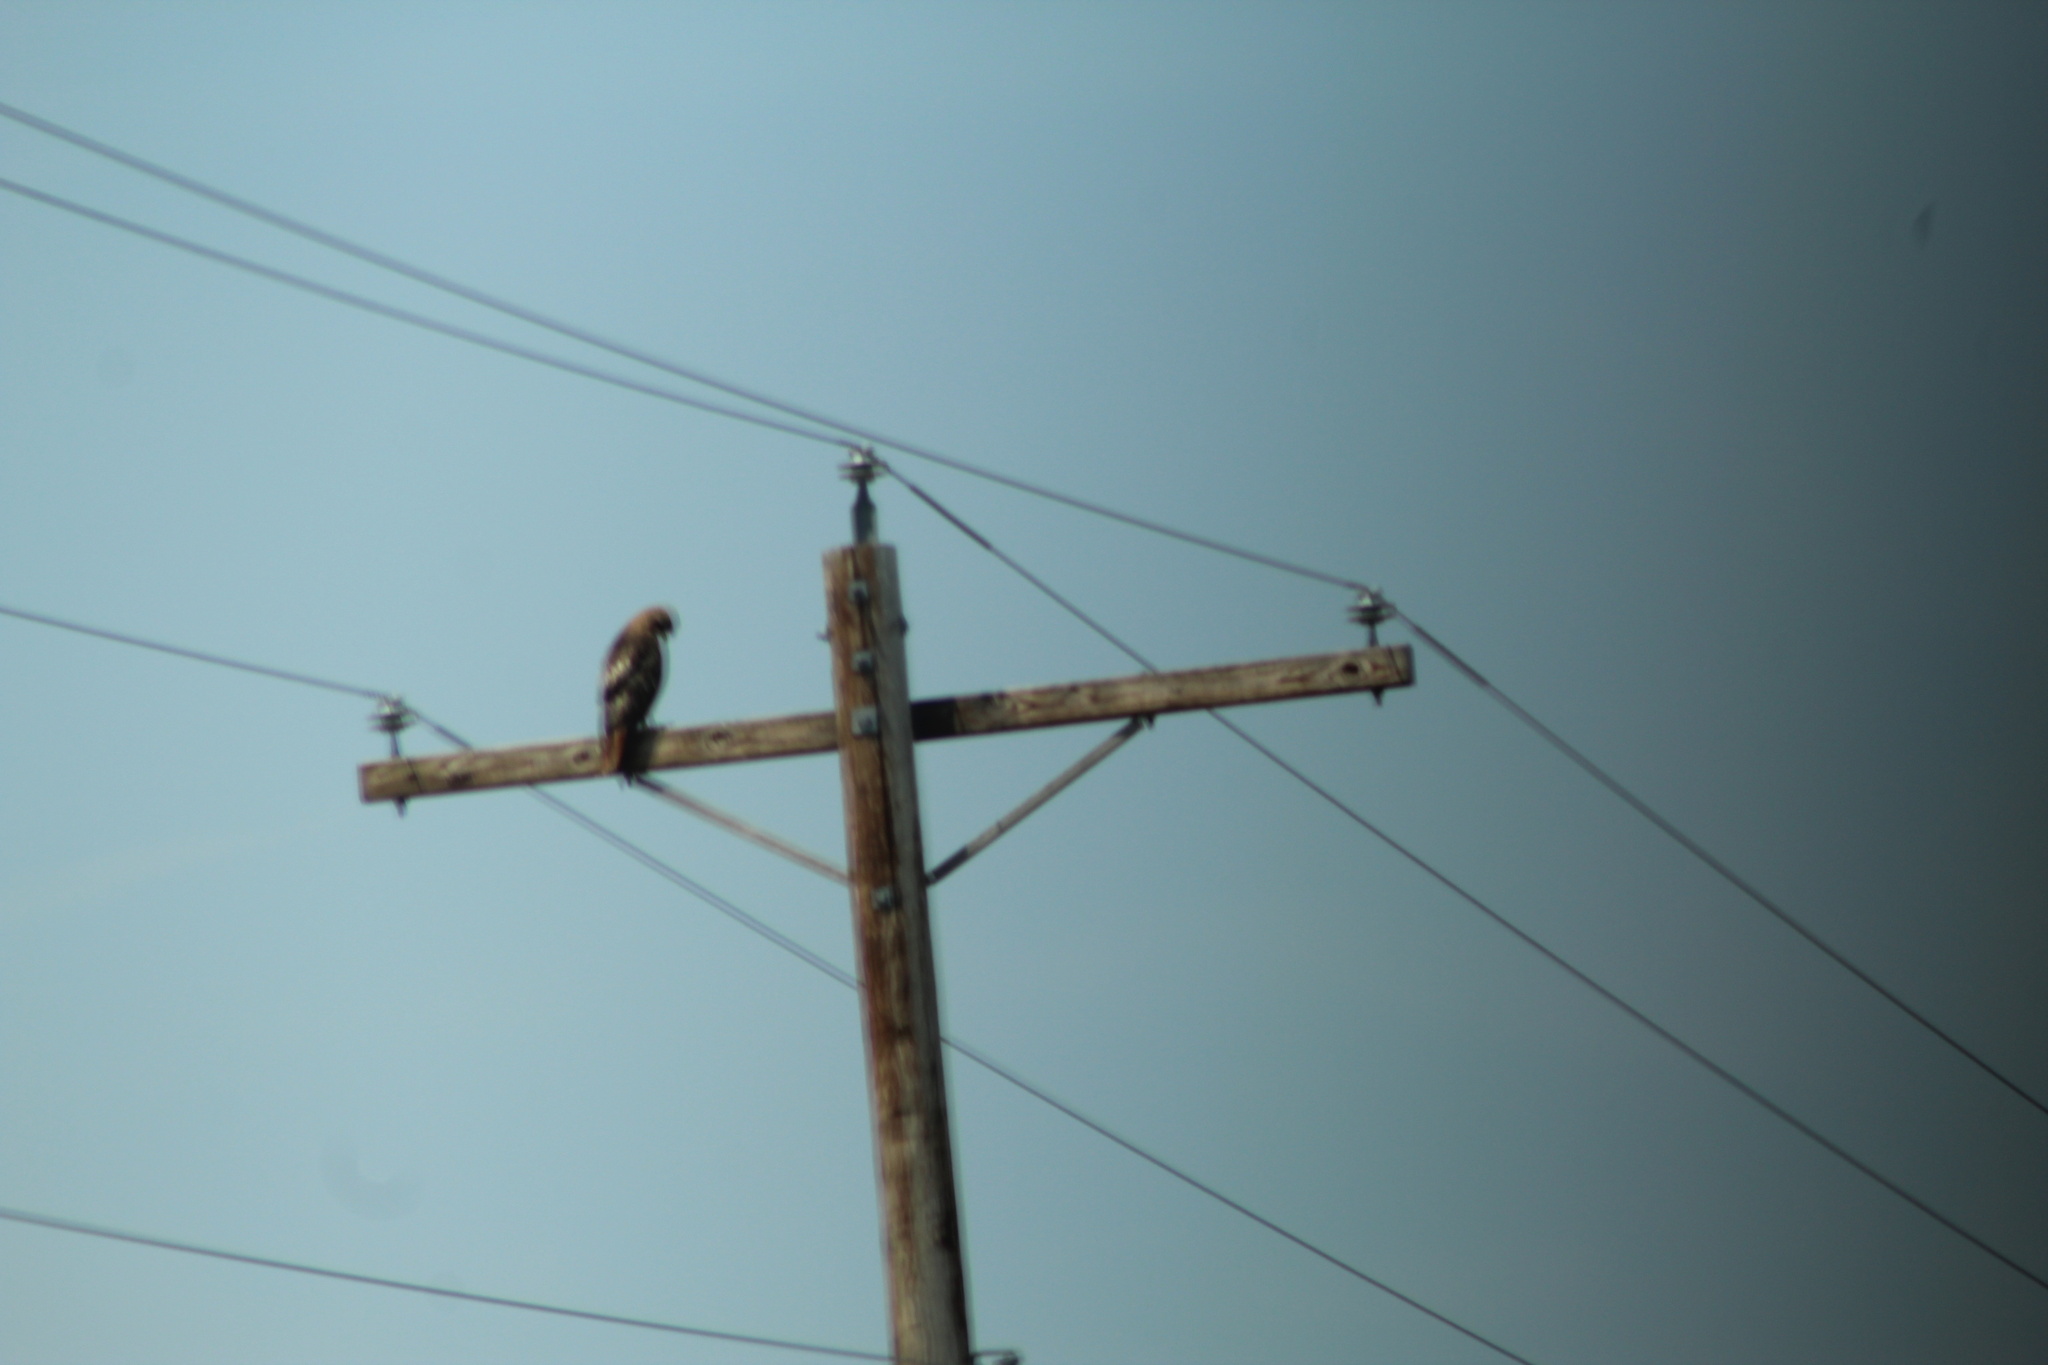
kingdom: Animalia
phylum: Chordata
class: Aves
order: Accipitriformes
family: Accipitridae
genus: Buteo
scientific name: Buteo jamaicensis
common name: Red-tailed hawk
